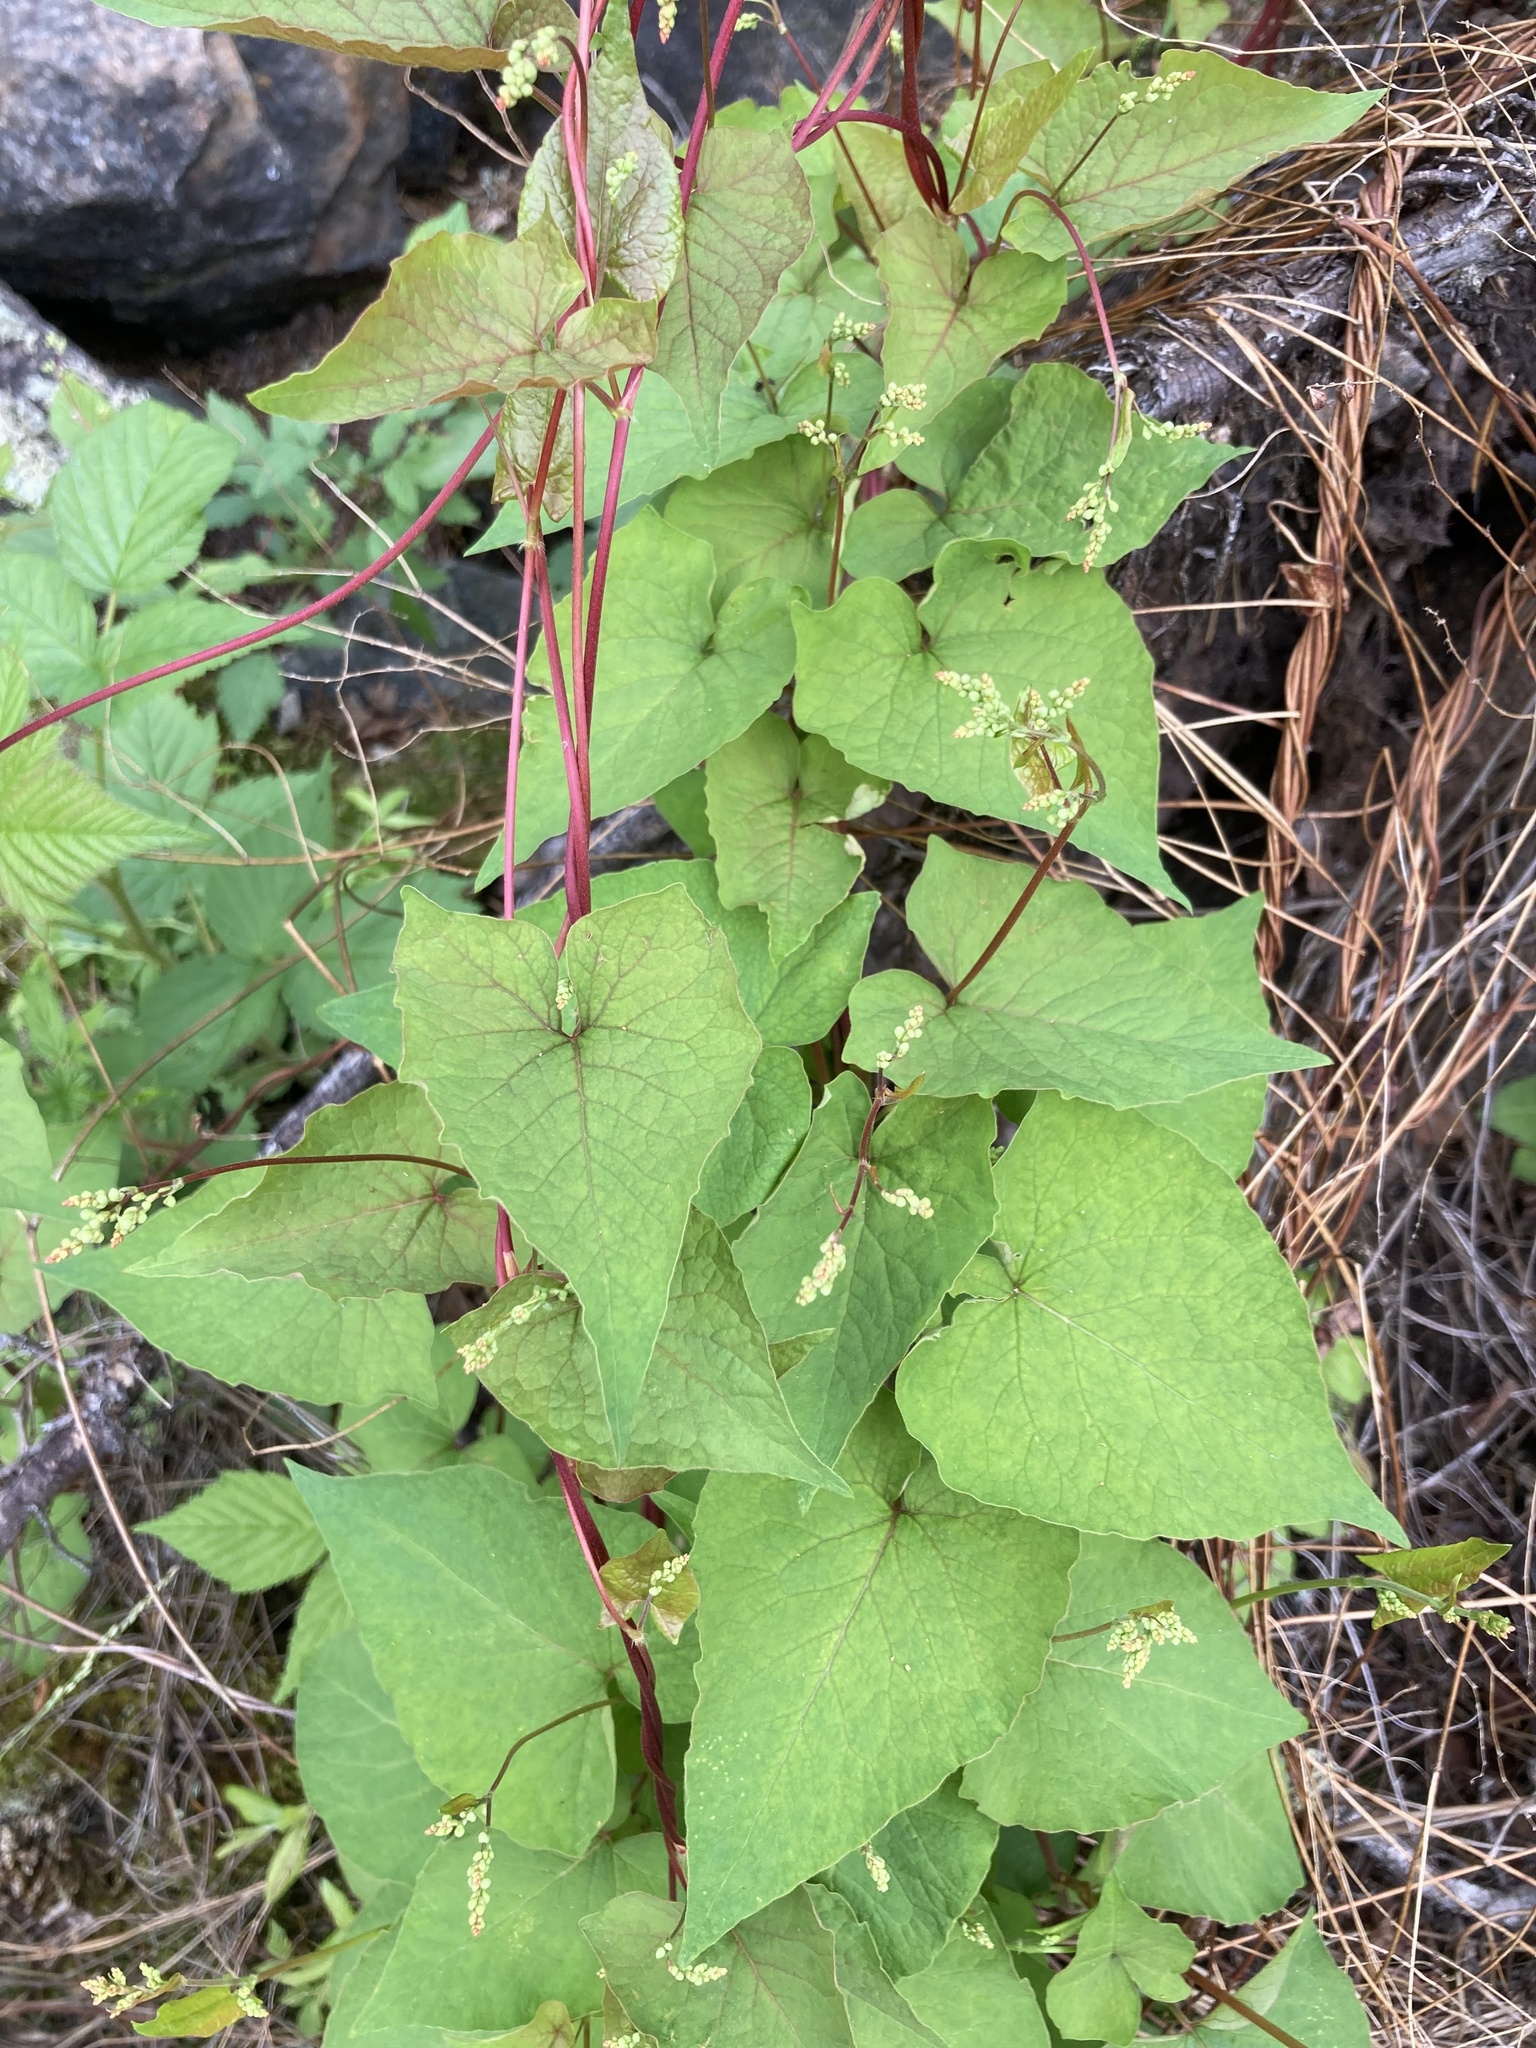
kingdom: Plantae
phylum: Tracheophyta
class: Magnoliopsida
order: Caryophyllales
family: Polygonaceae
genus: Parogonum
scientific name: Parogonum ciliinode
